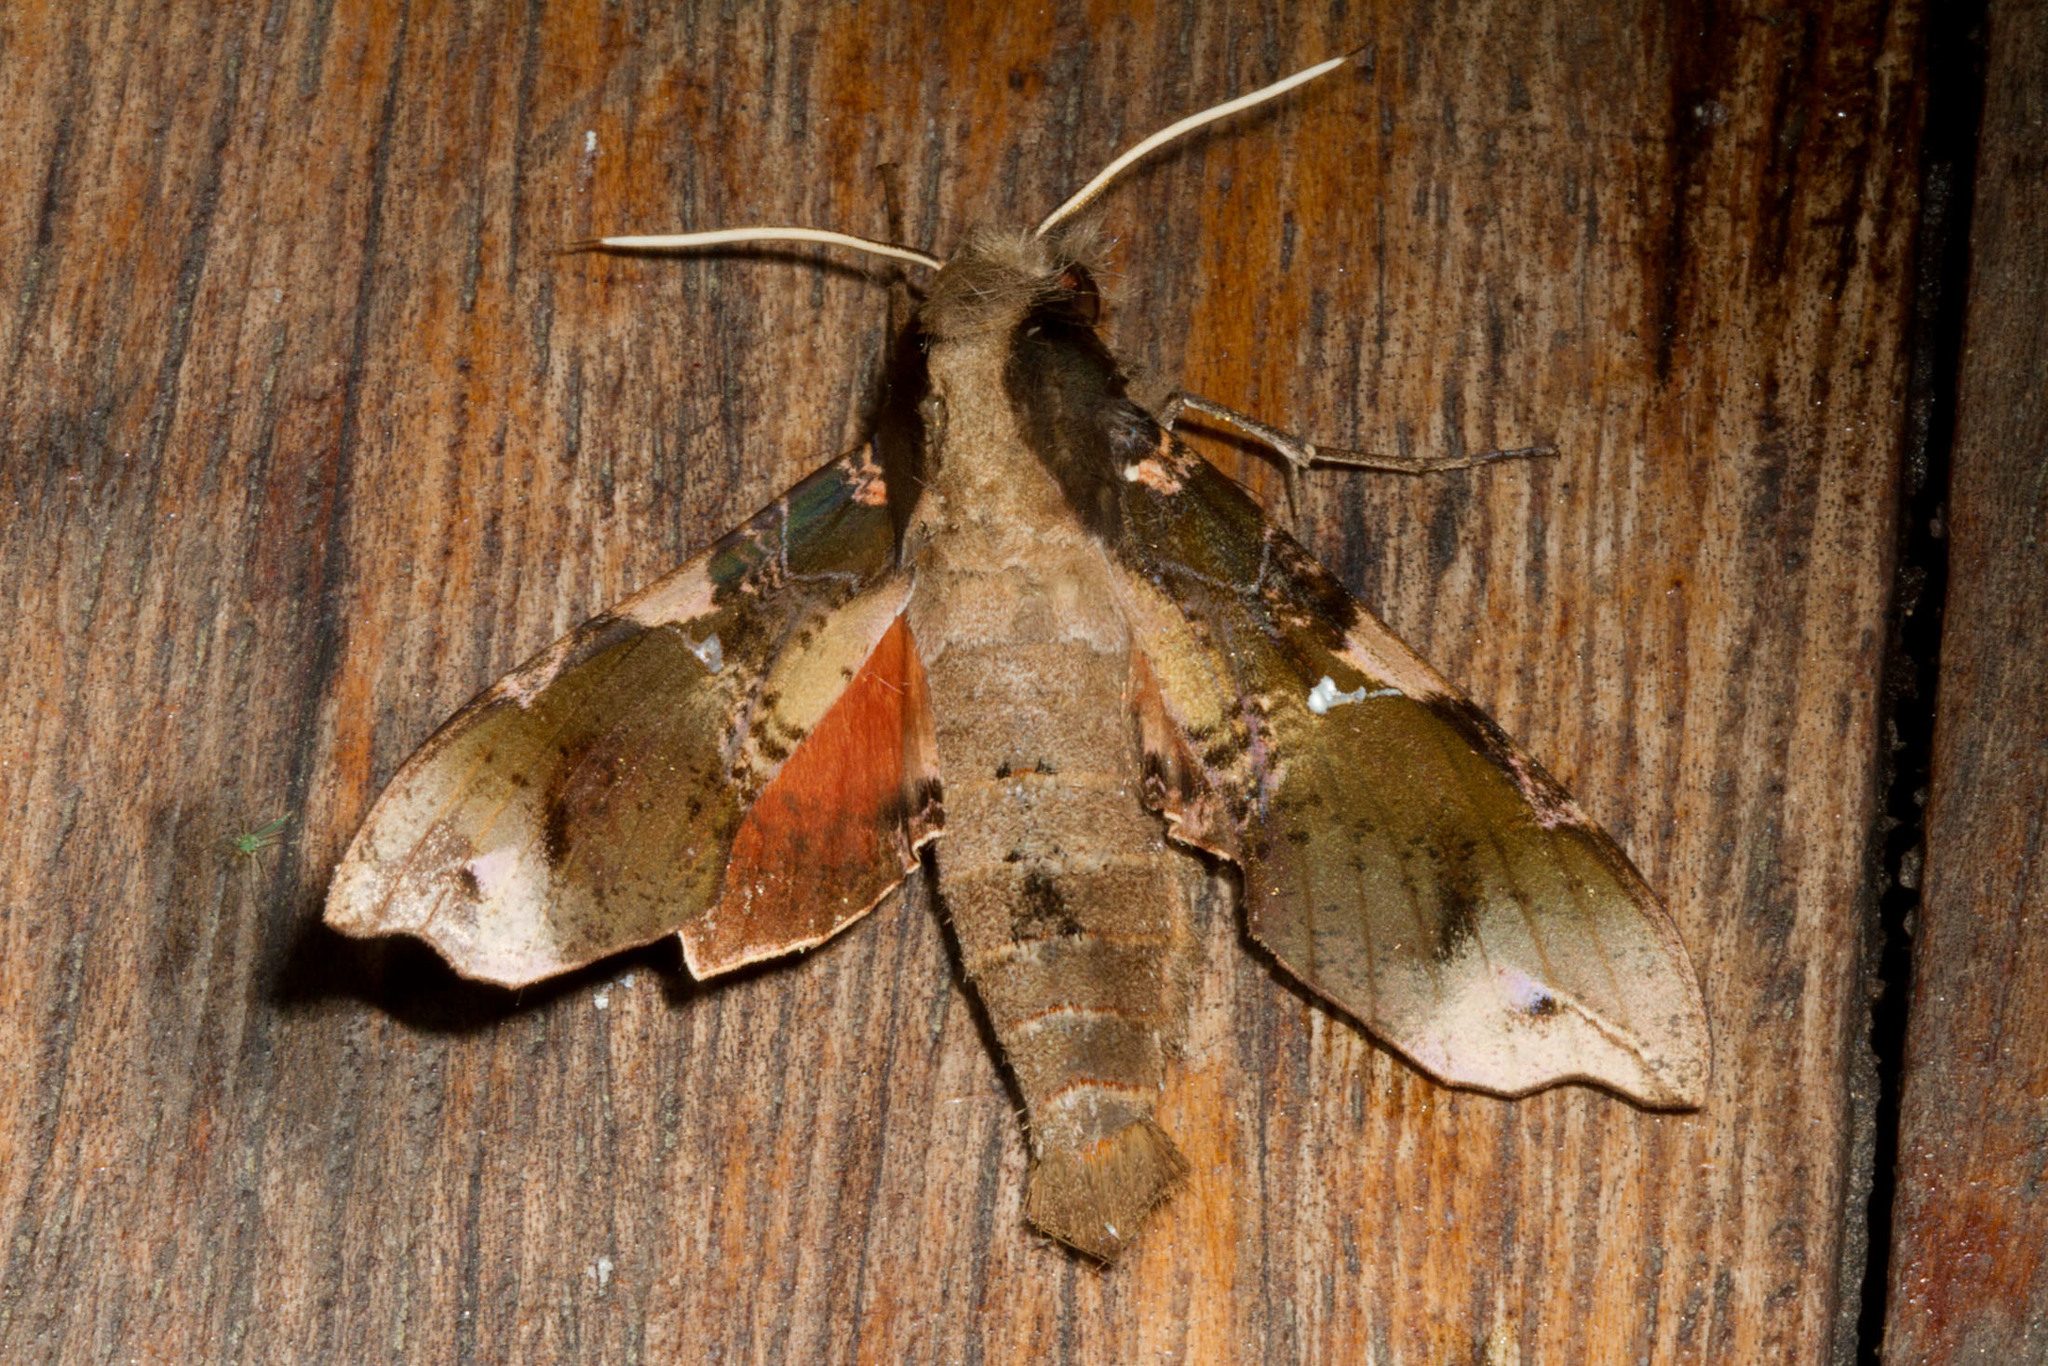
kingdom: Animalia
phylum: Arthropoda
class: Insecta
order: Lepidoptera
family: Sphingidae
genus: Callionima
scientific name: Callionima pan
